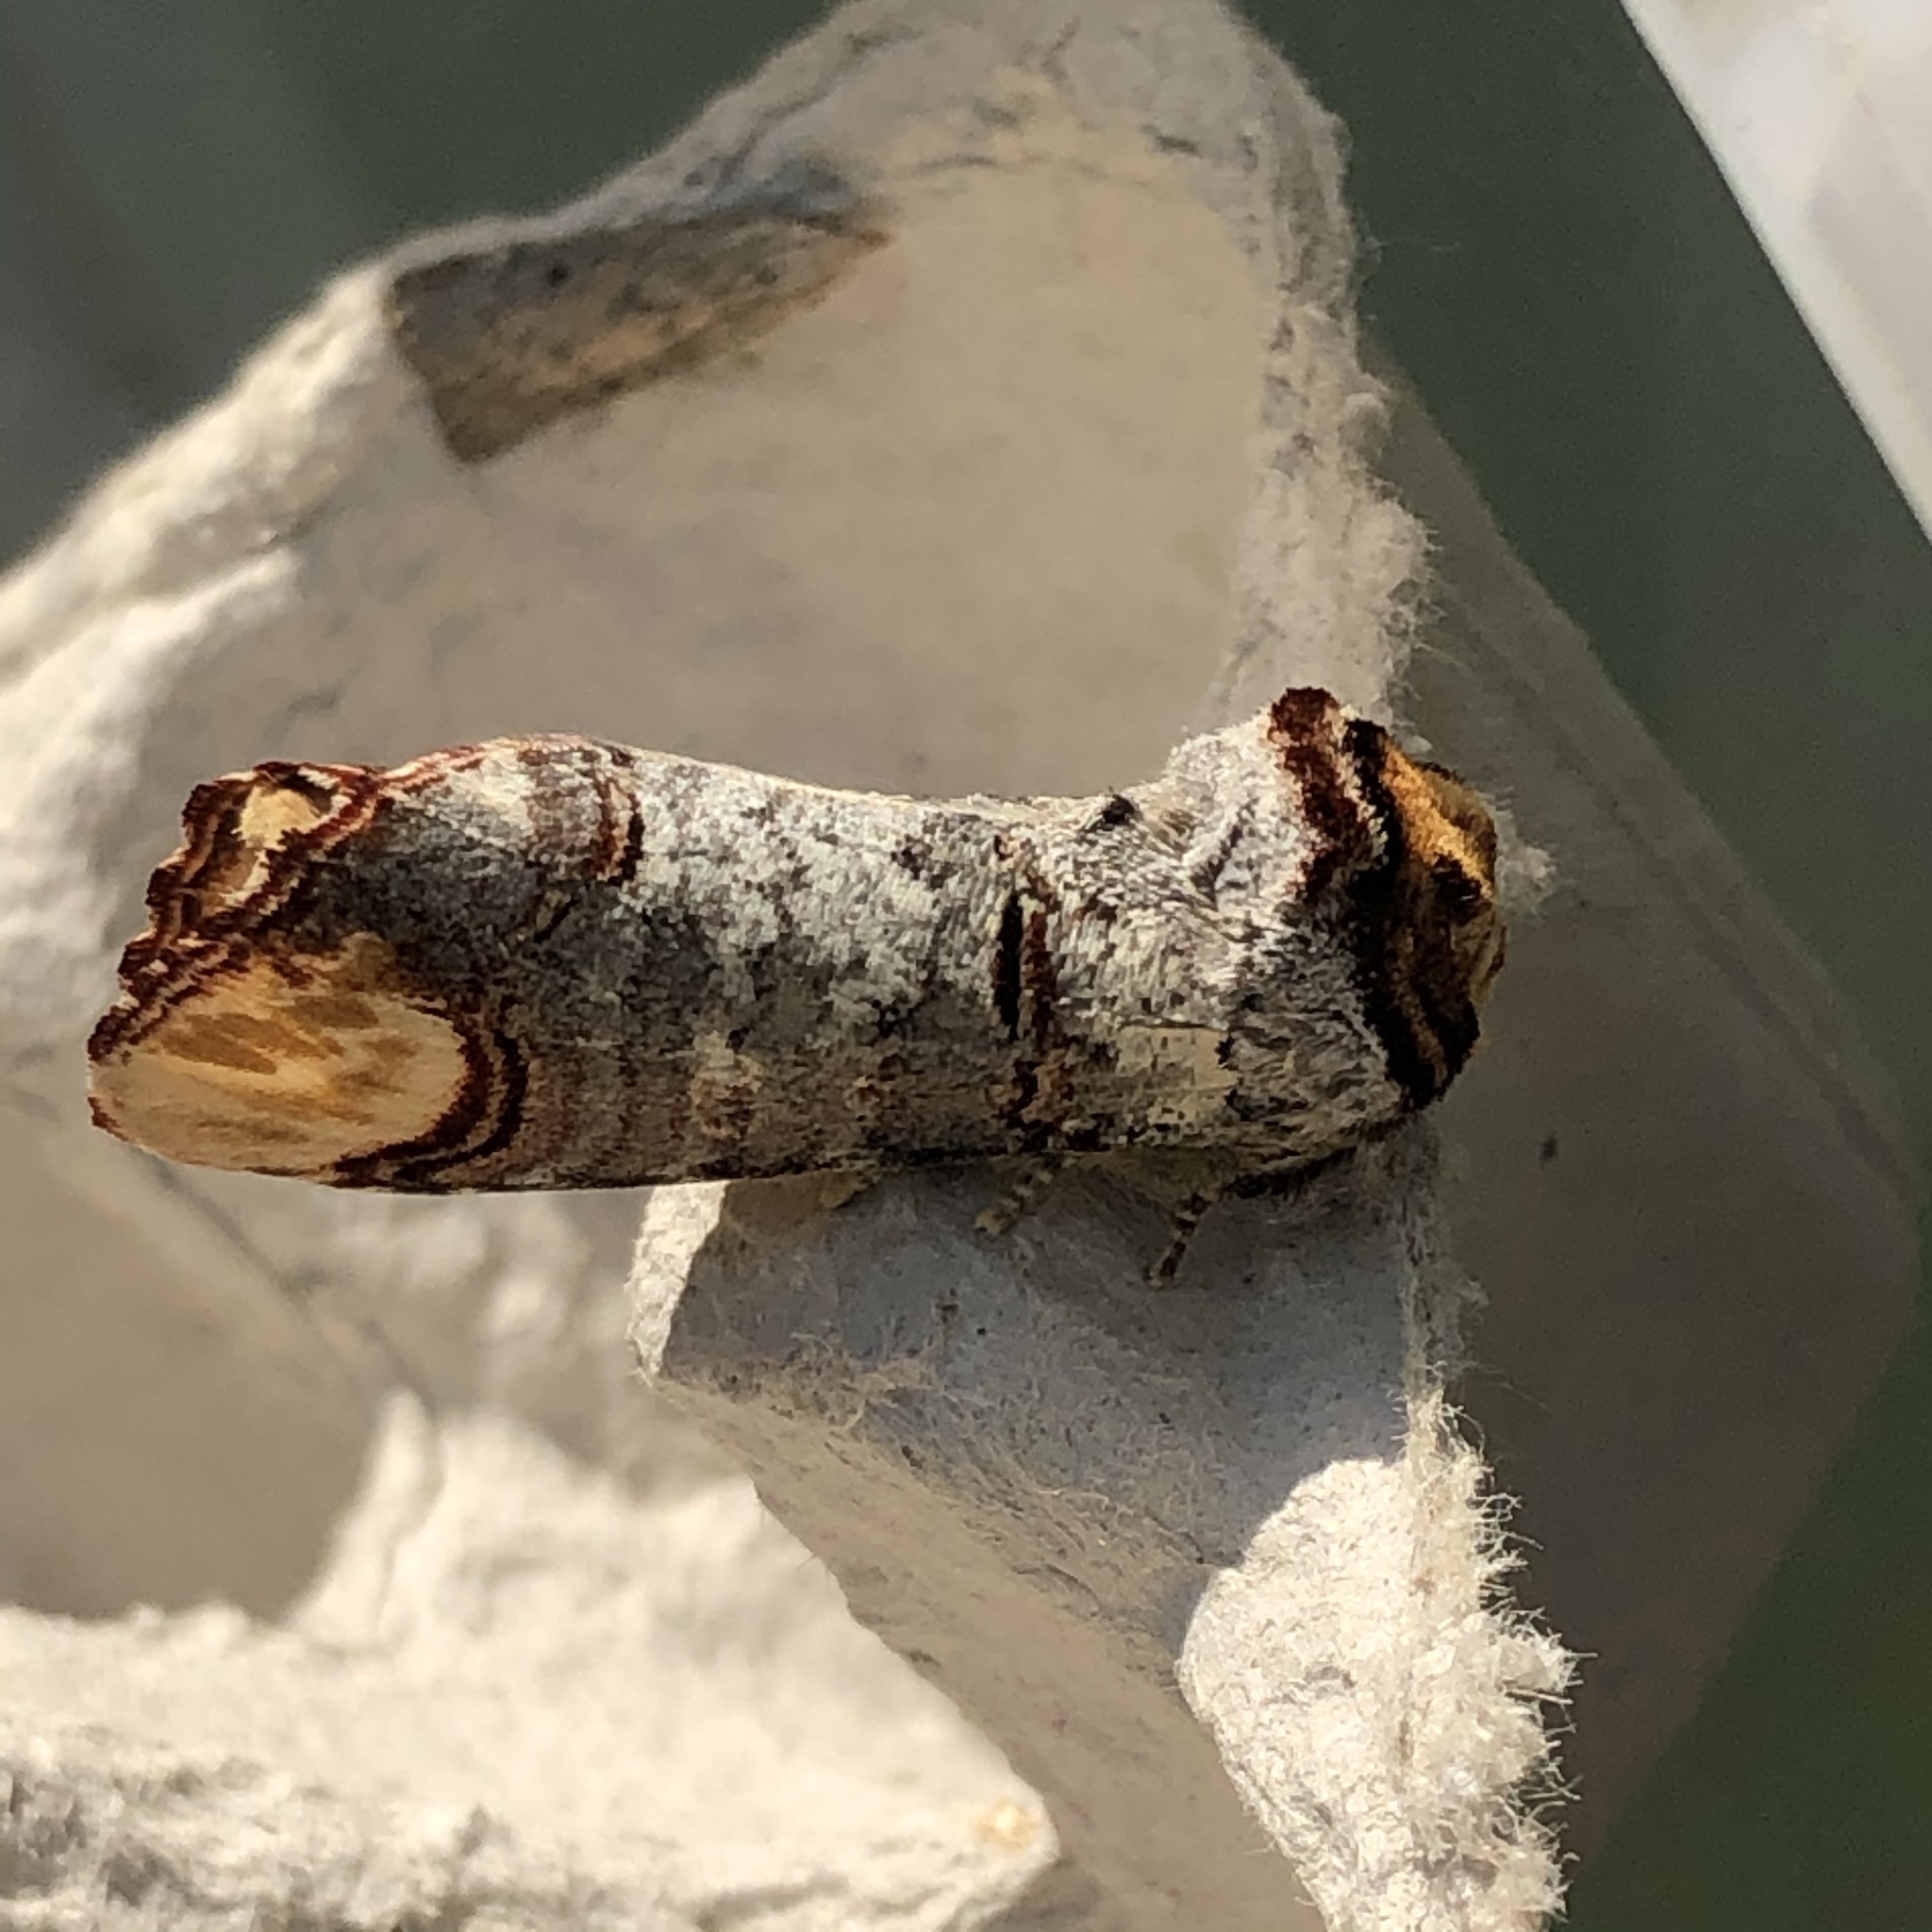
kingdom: Animalia
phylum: Arthropoda
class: Insecta
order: Lepidoptera
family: Notodontidae
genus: Phalera
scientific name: Phalera bucephala
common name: Buff-tip
